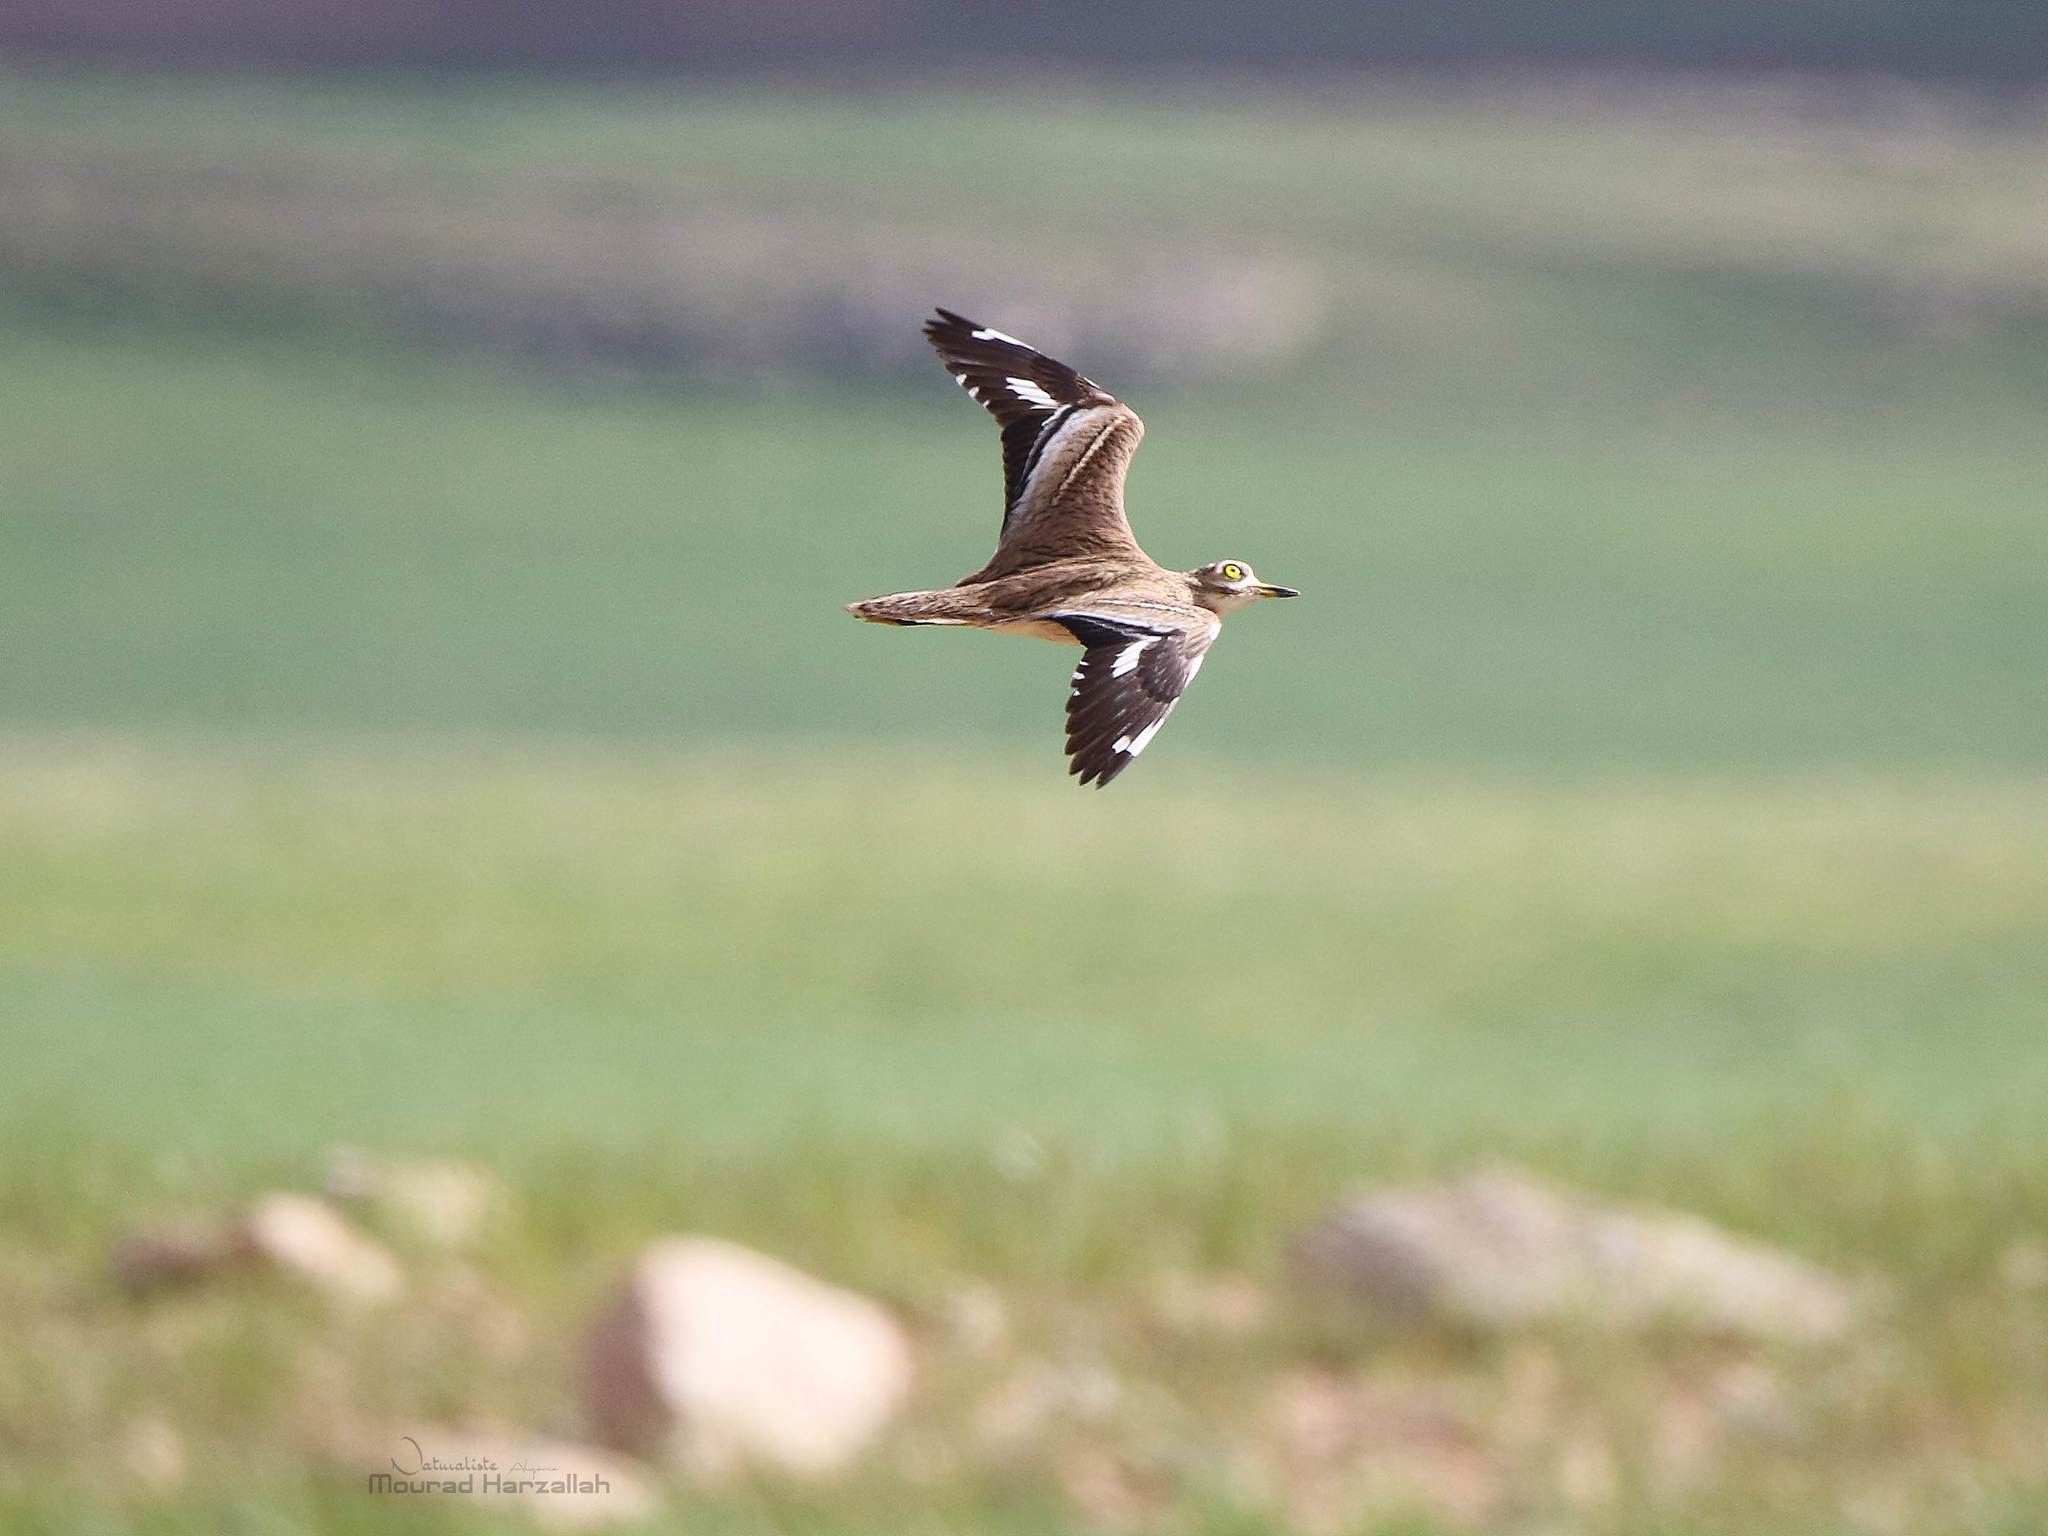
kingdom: Animalia
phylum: Chordata
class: Aves
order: Charadriiformes
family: Burhinidae
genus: Burhinus
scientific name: Burhinus oedicnemus
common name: Eurasian stone-curlew
